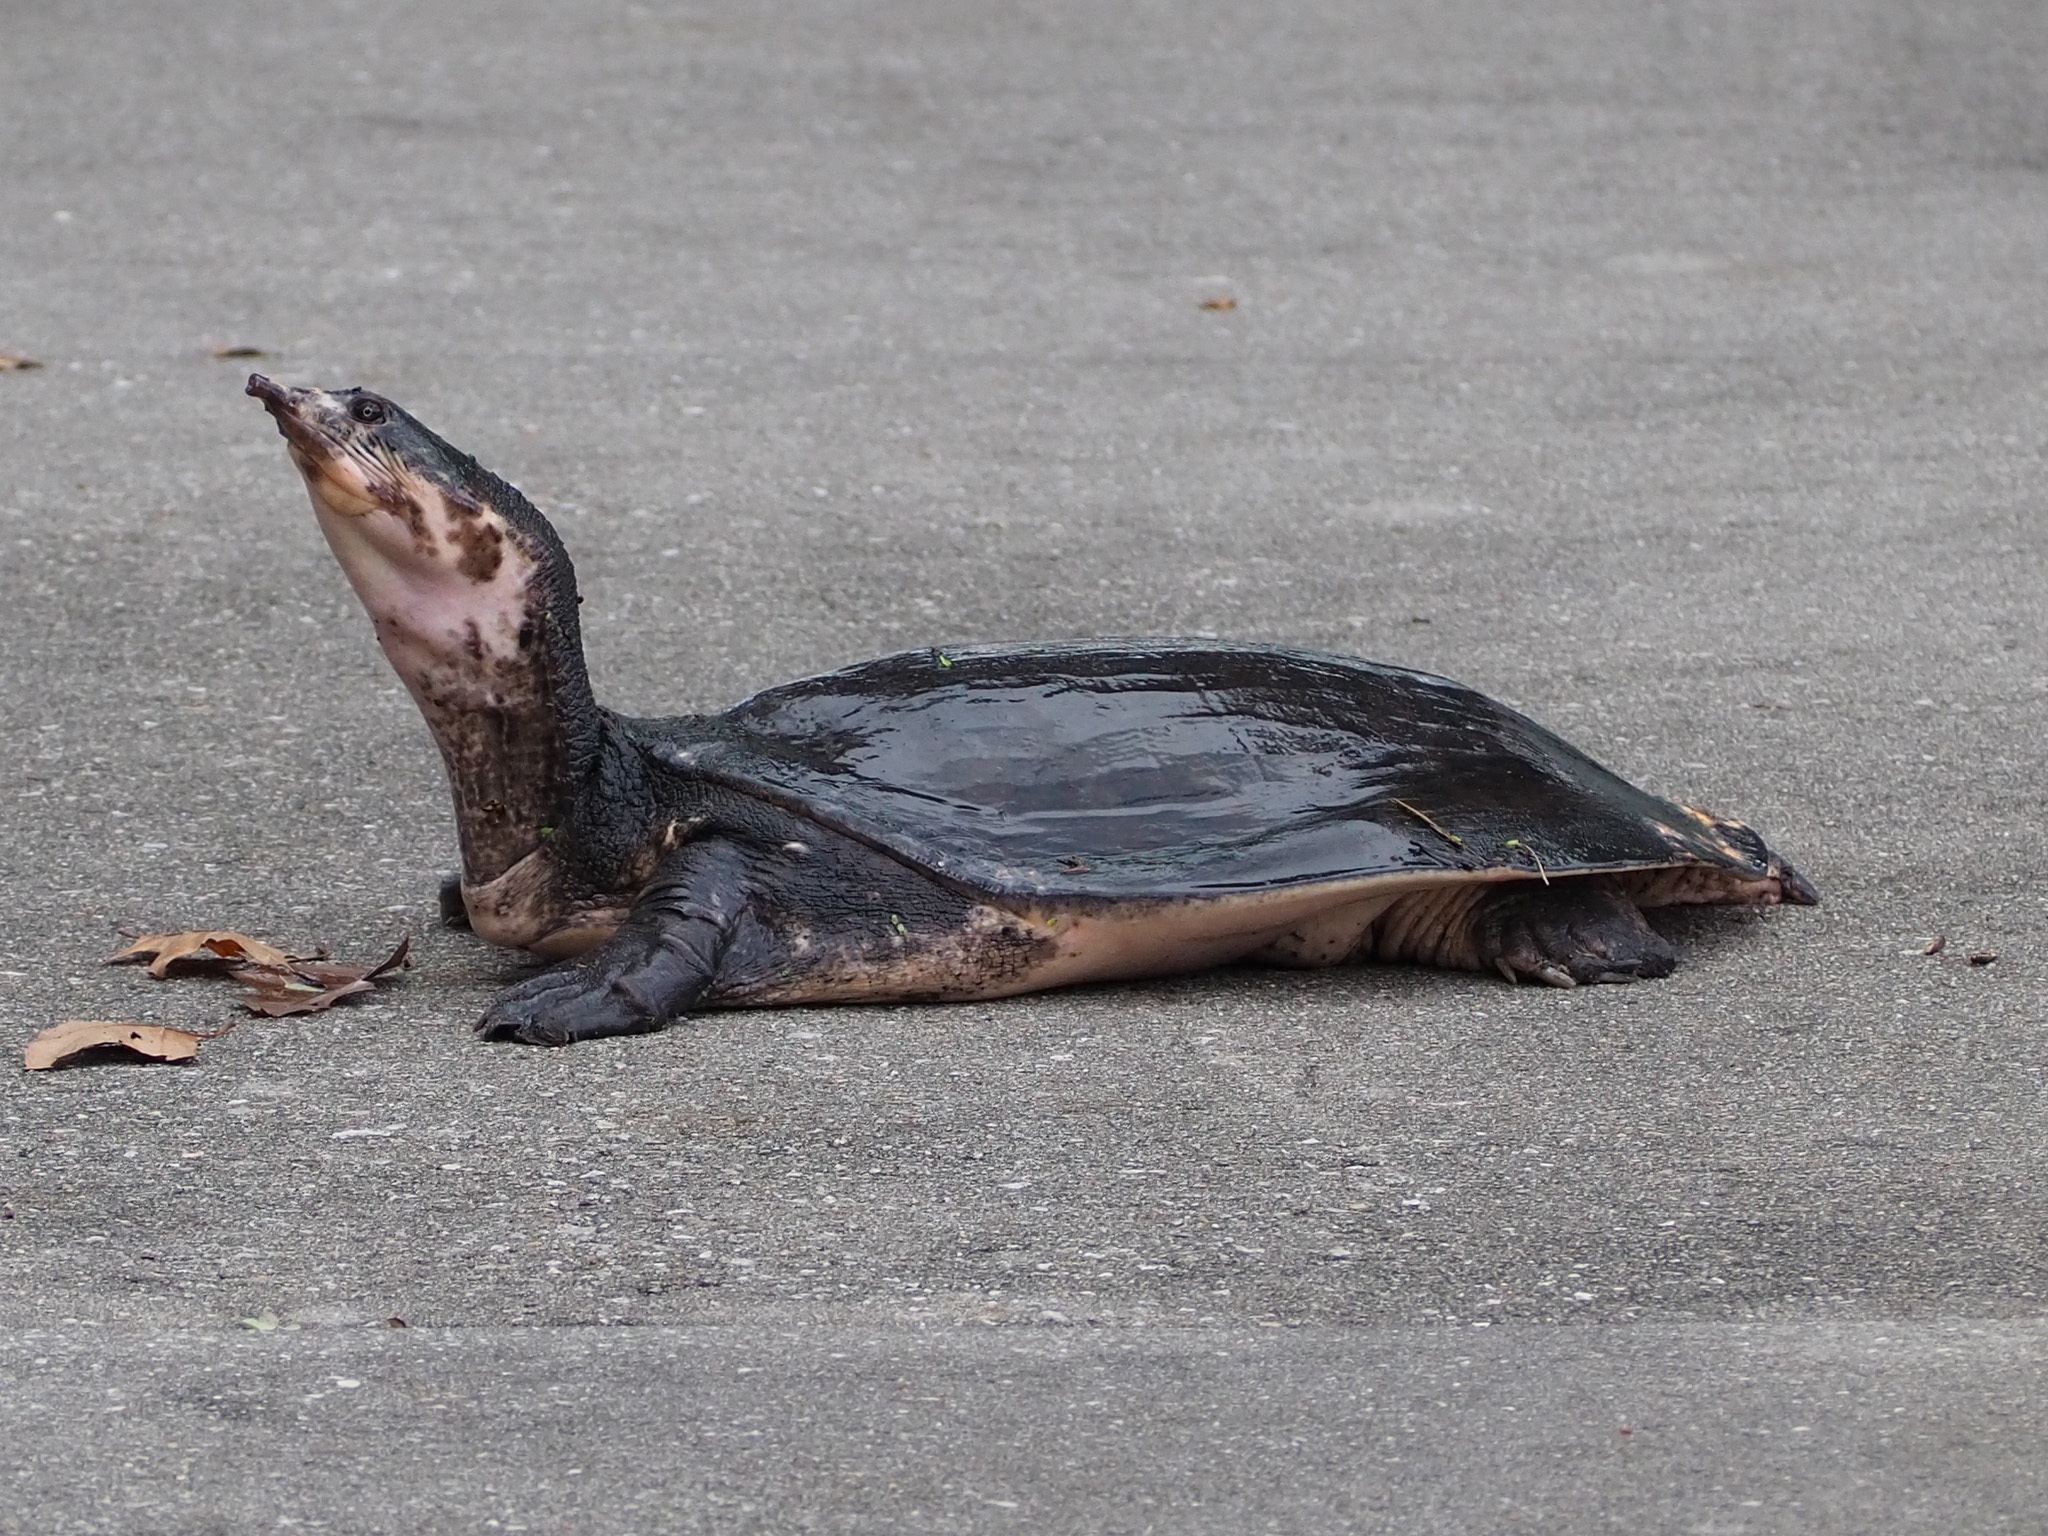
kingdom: Animalia
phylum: Chordata
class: Testudines
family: Trionychidae
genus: Apalone
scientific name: Apalone ferox
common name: Florida softshell turtle
